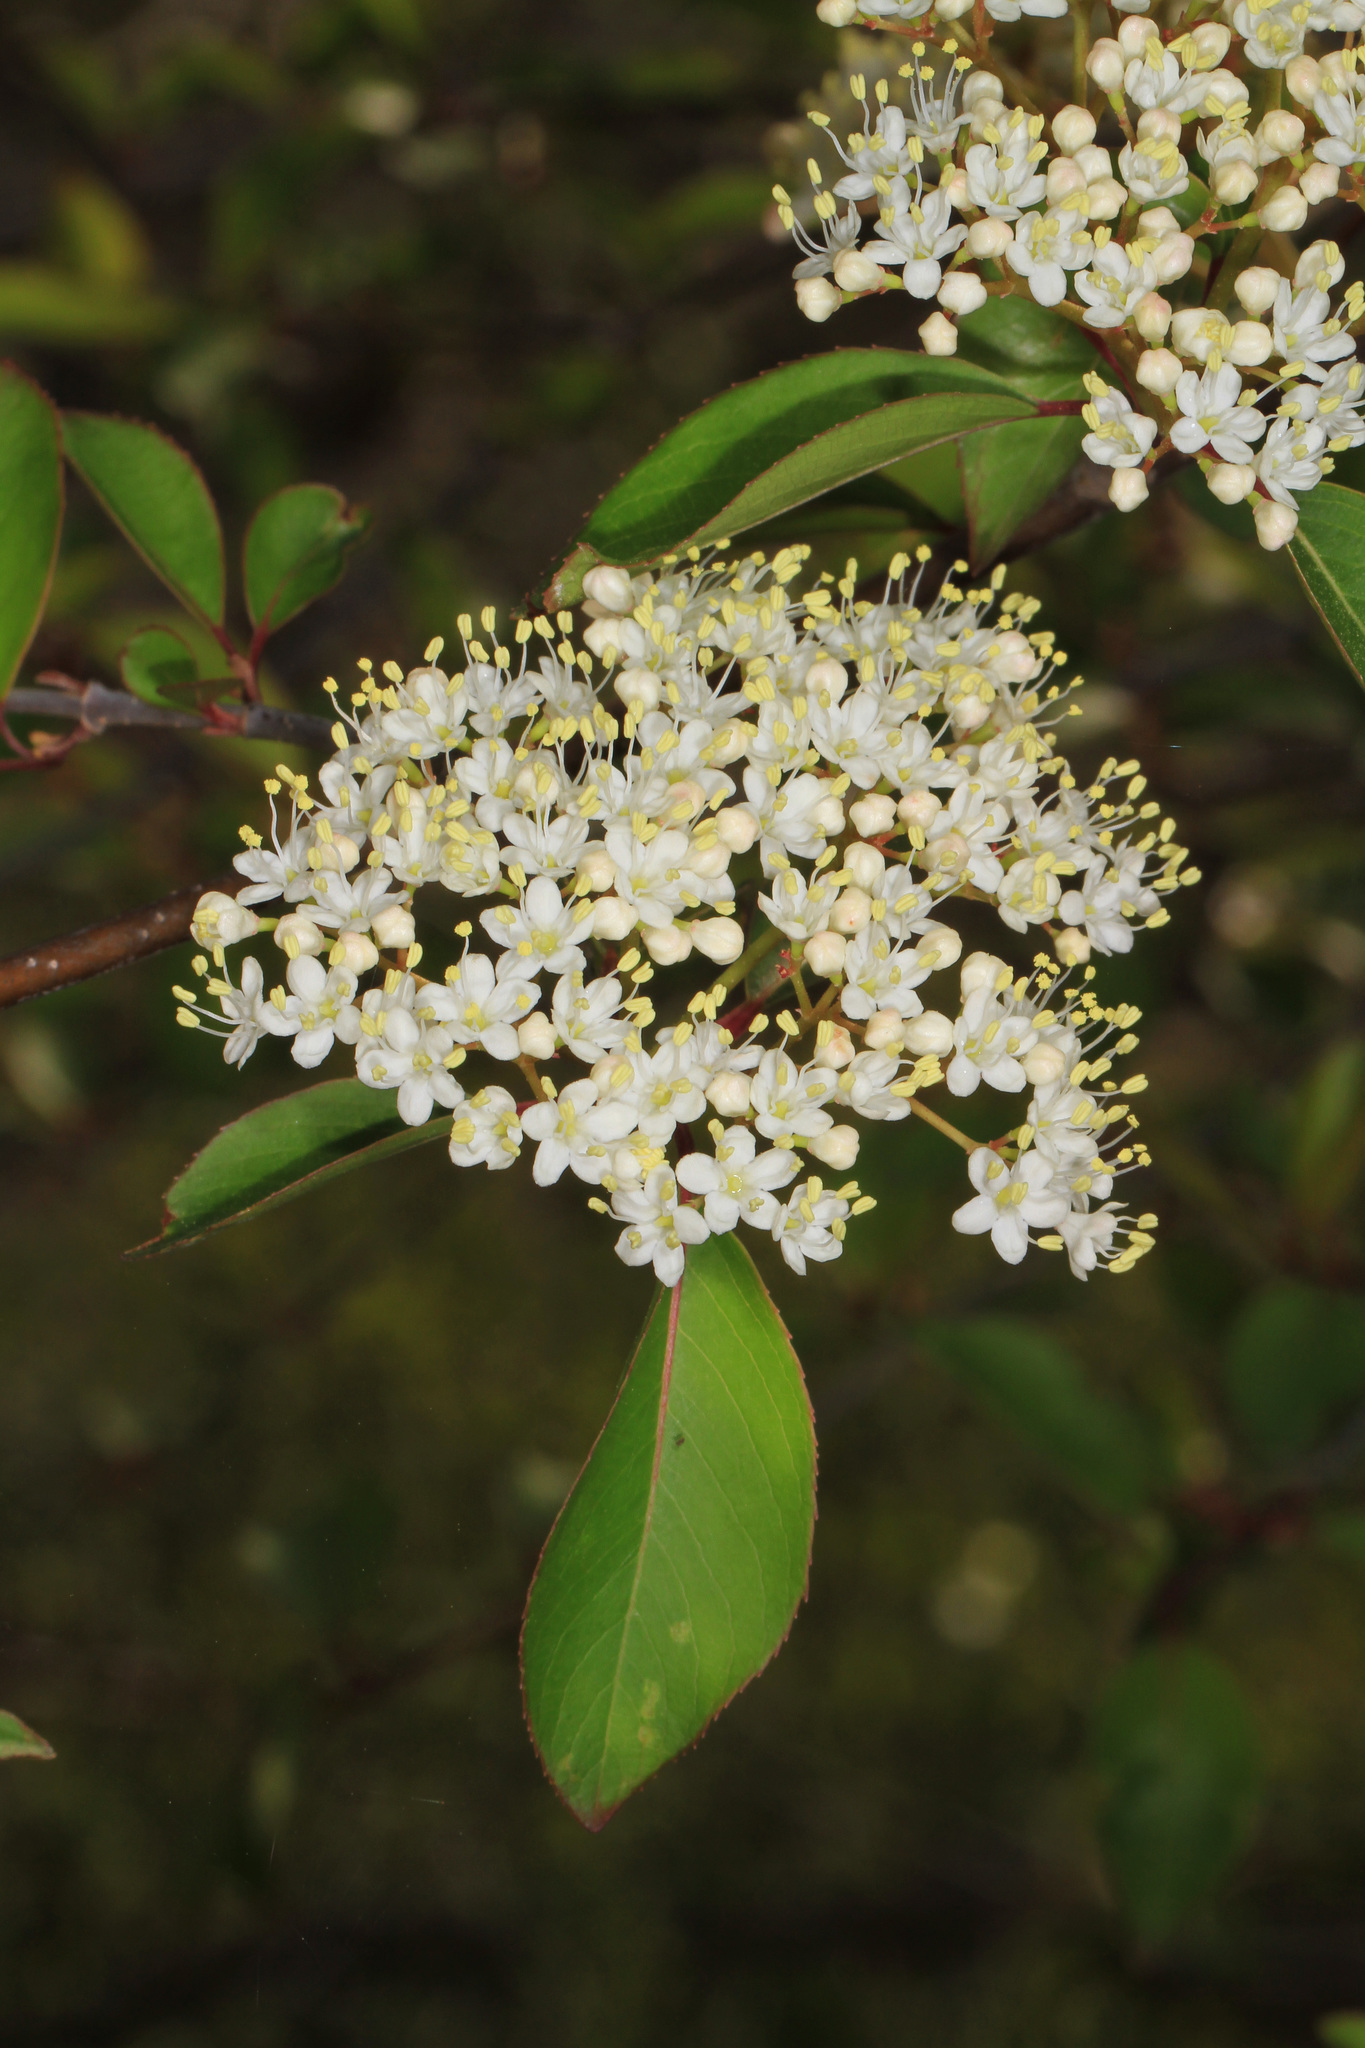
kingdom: Plantae
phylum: Tracheophyta
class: Magnoliopsida
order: Dipsacales
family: Viburnaceae
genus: Viburnum
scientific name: Viburnum prunifolium
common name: Black haw
